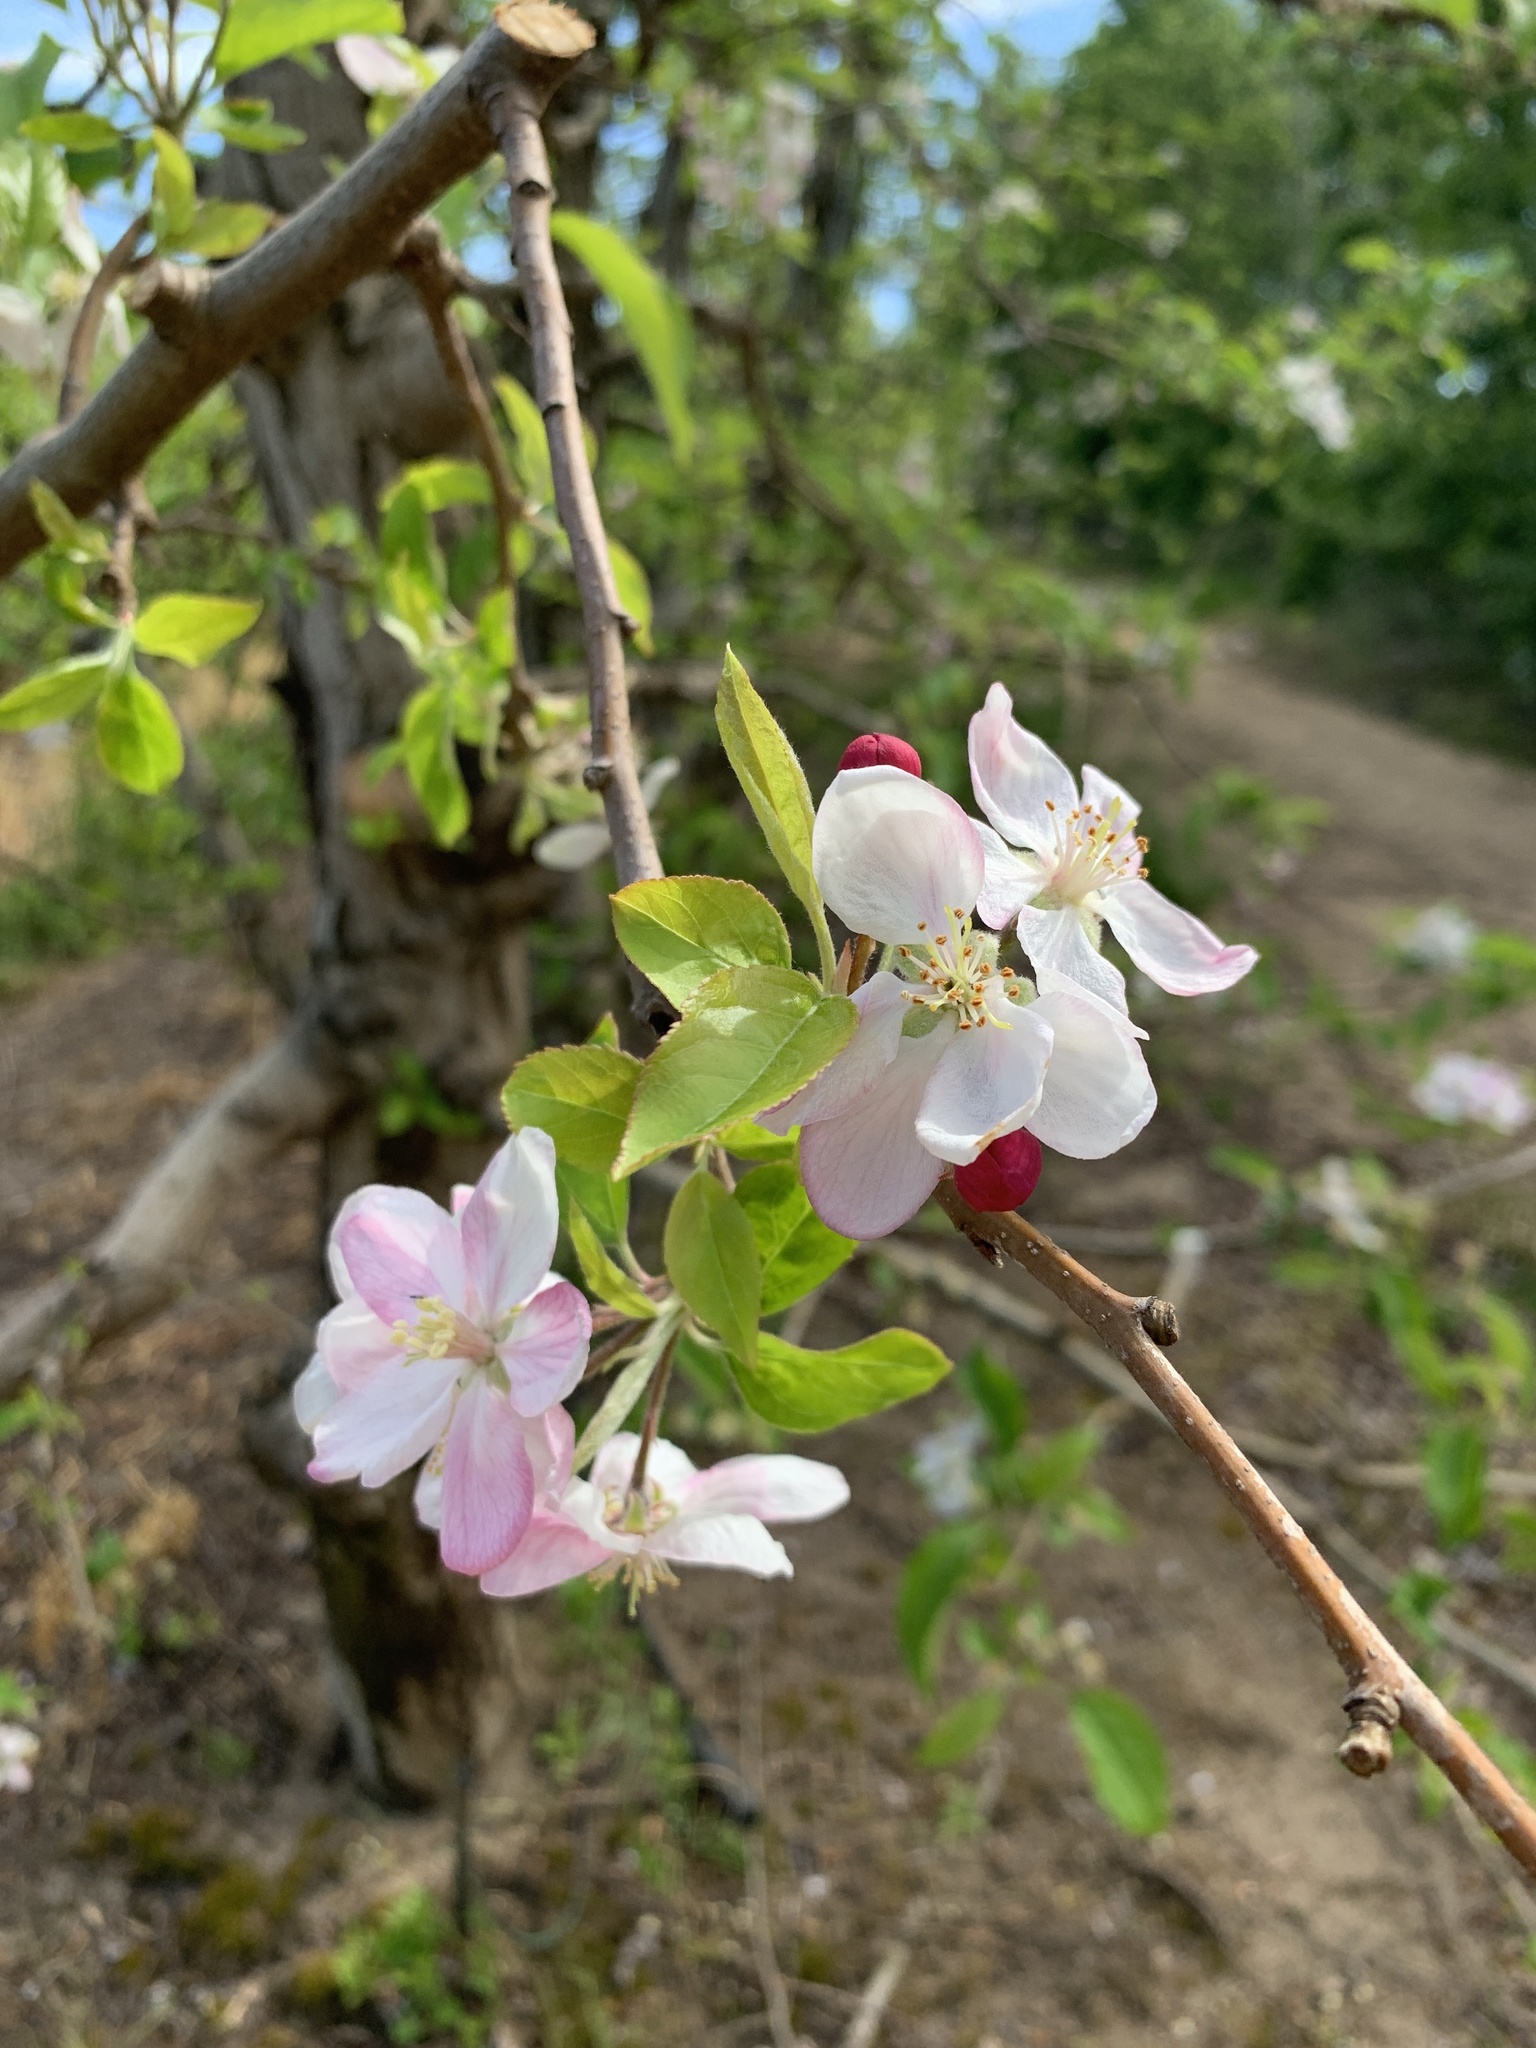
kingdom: Plantae
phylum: Tracheophyta
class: Magnoliopsida
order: Rosales
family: Rosaceae
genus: Malus
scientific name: Malus domestica
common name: Apple
